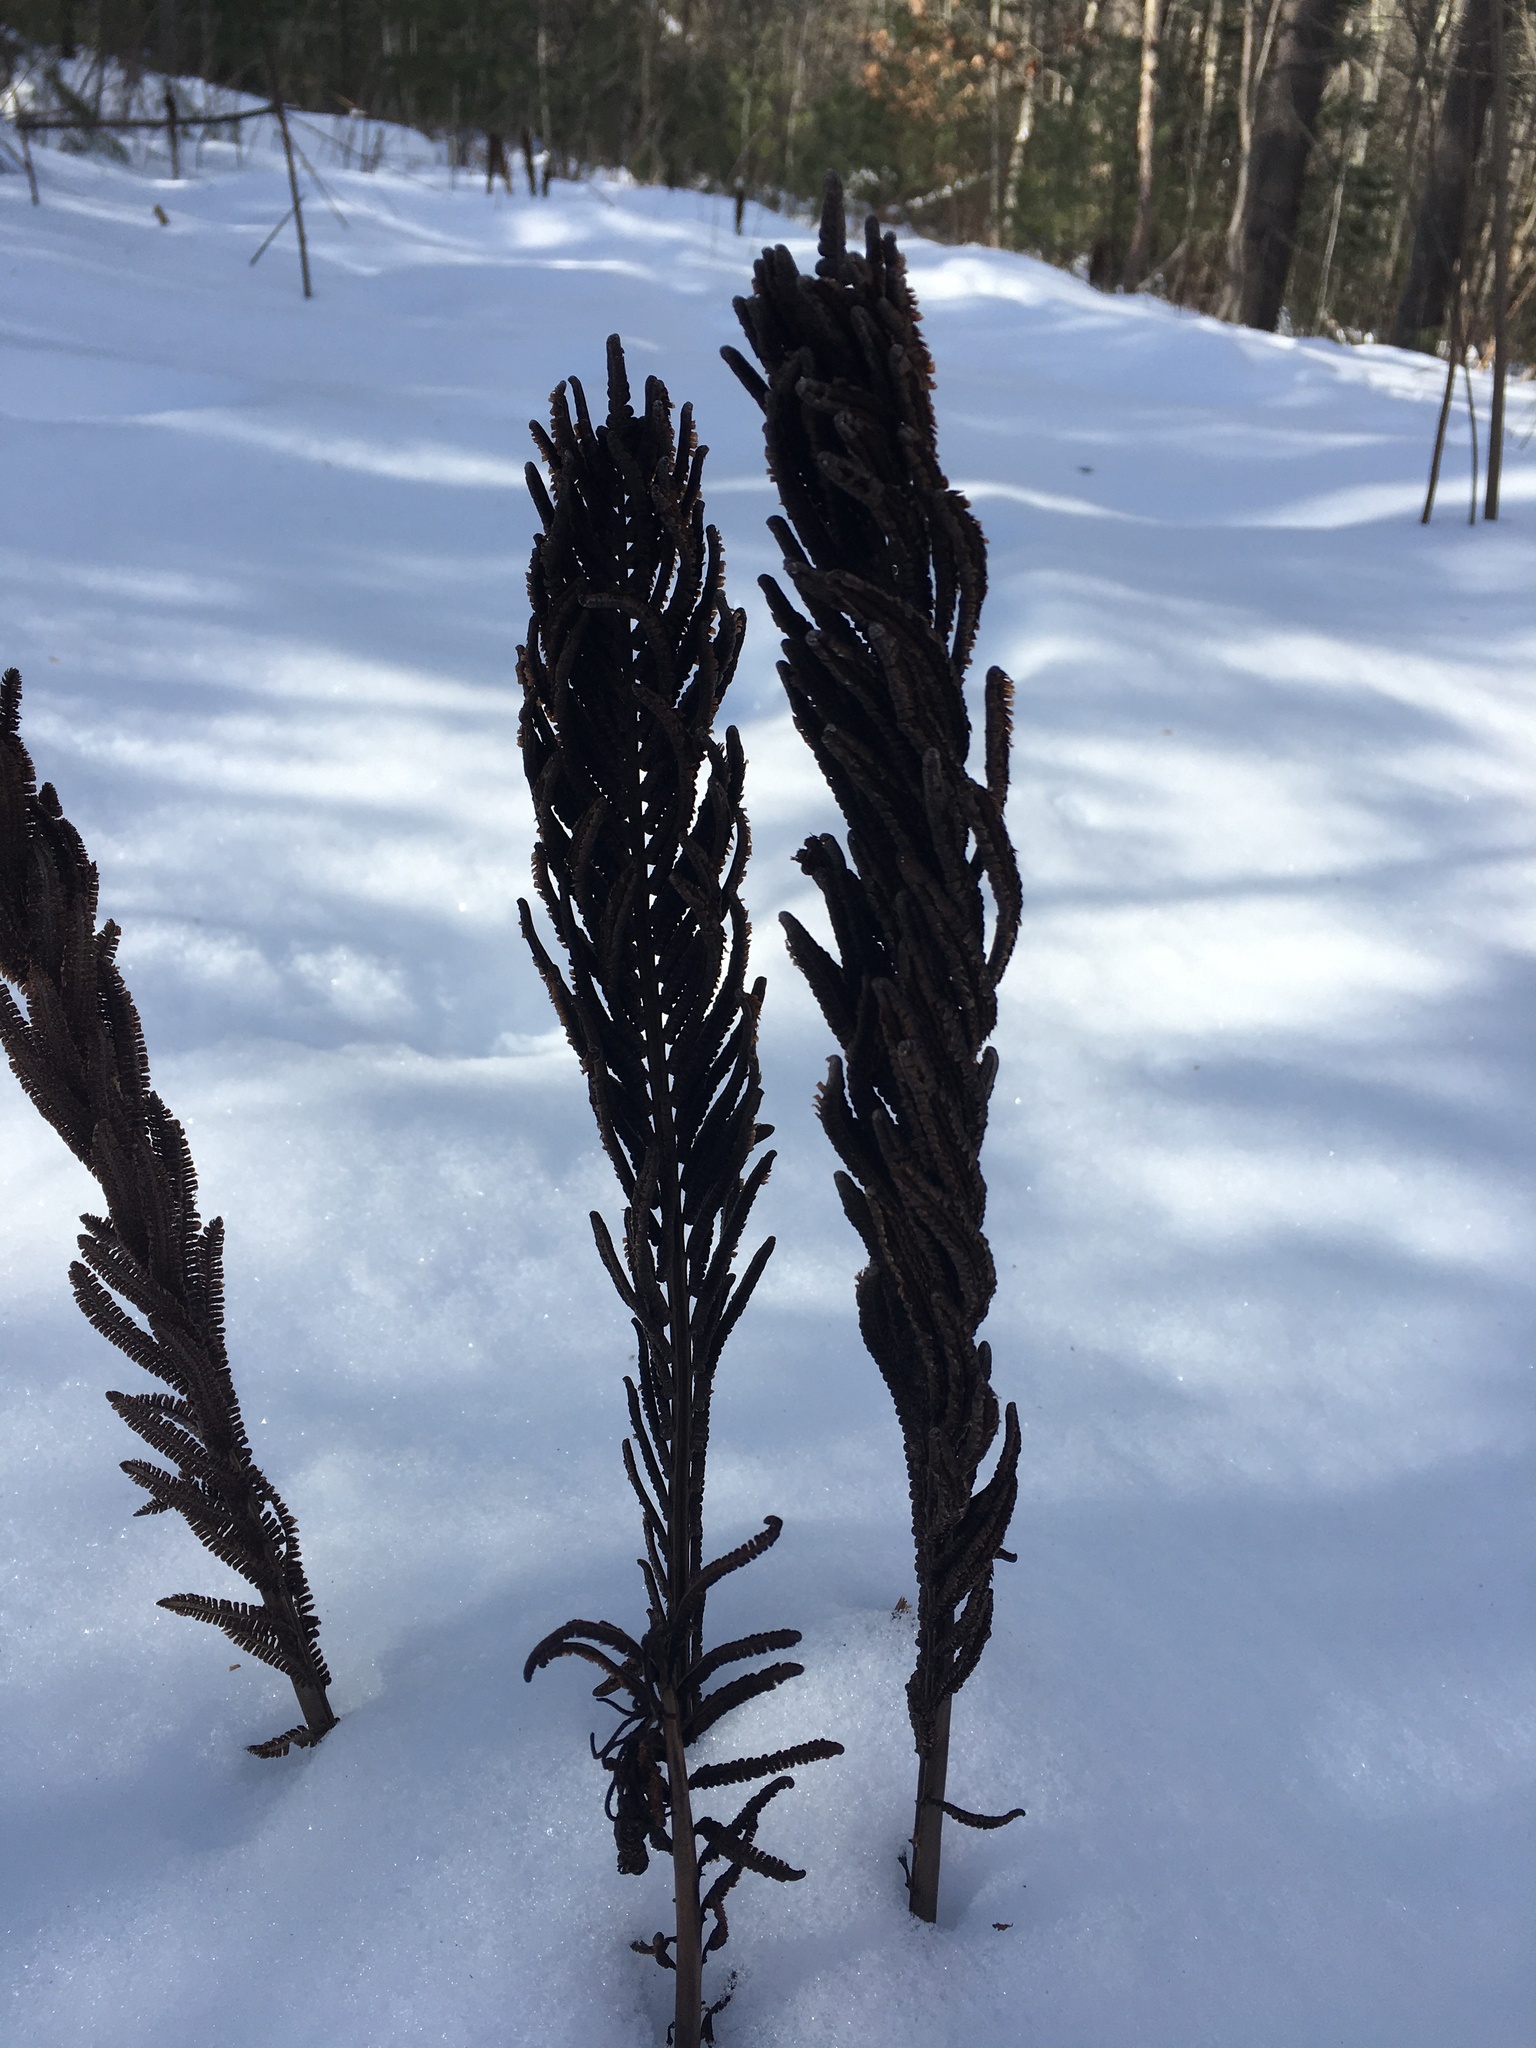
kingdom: Plantae
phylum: Tracheophyta
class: Polypodiopsida
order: Polypodiales
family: Onocleaceae
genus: Matteuccia
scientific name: Matteuccia struthiopteris
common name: Ostrich fern
